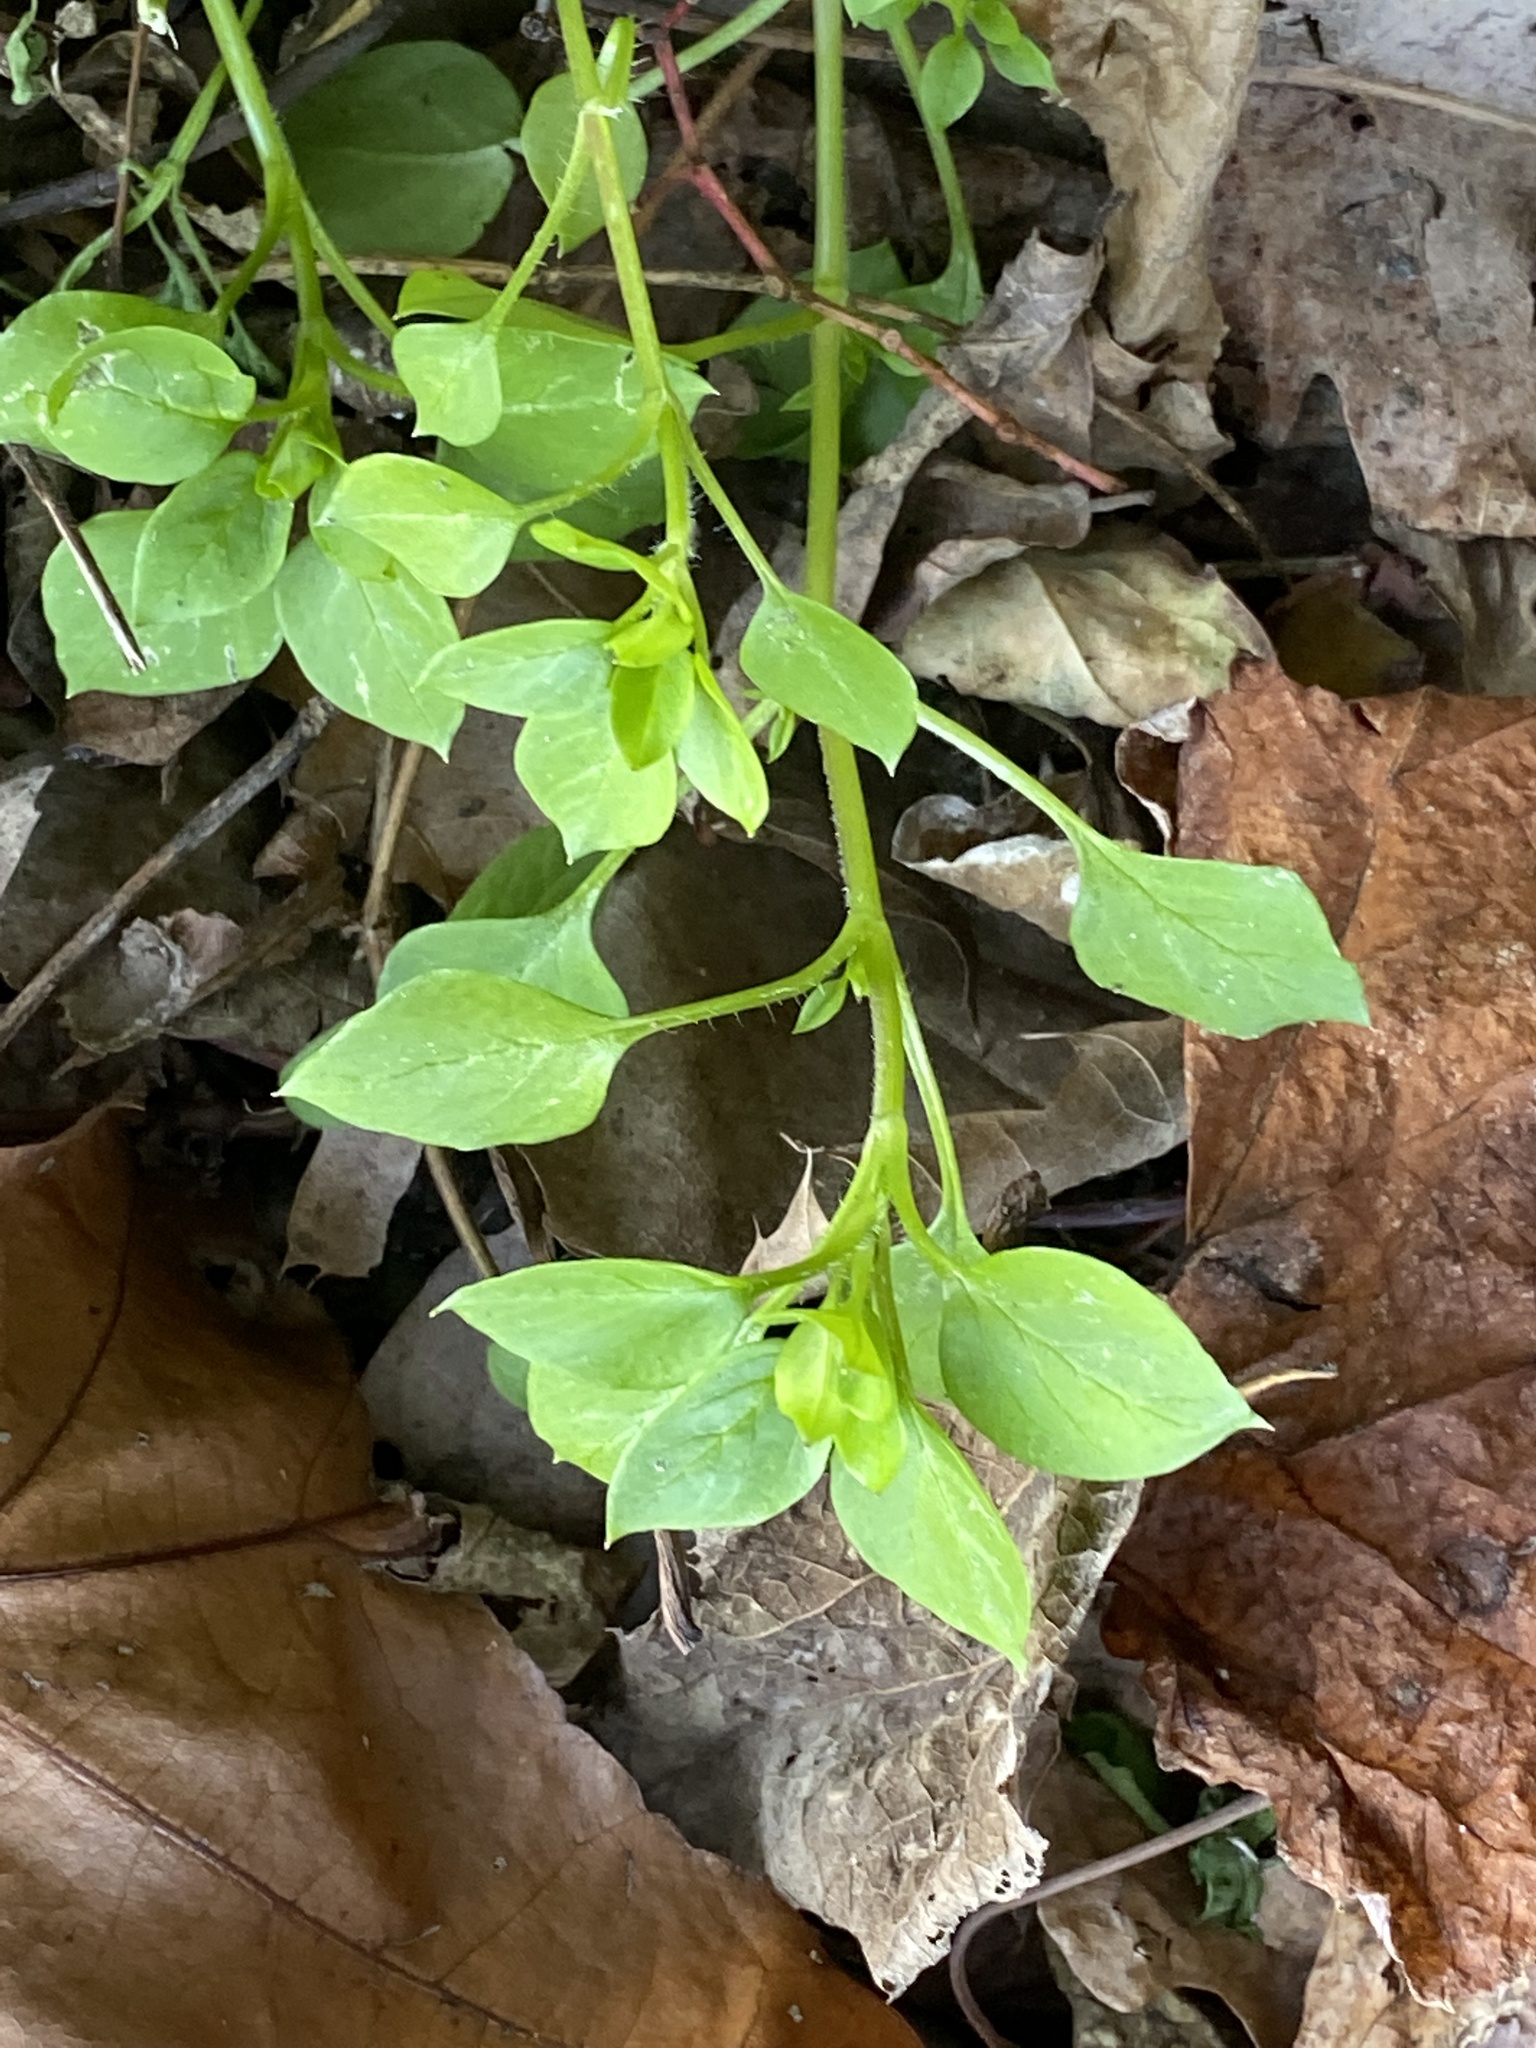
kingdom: Plantae
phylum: Tracheophyta
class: Magnoliopsida
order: Caryophyllales
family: Caryophyllaceae
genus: Stellaria
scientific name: Stellaria media
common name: Common chickweed
